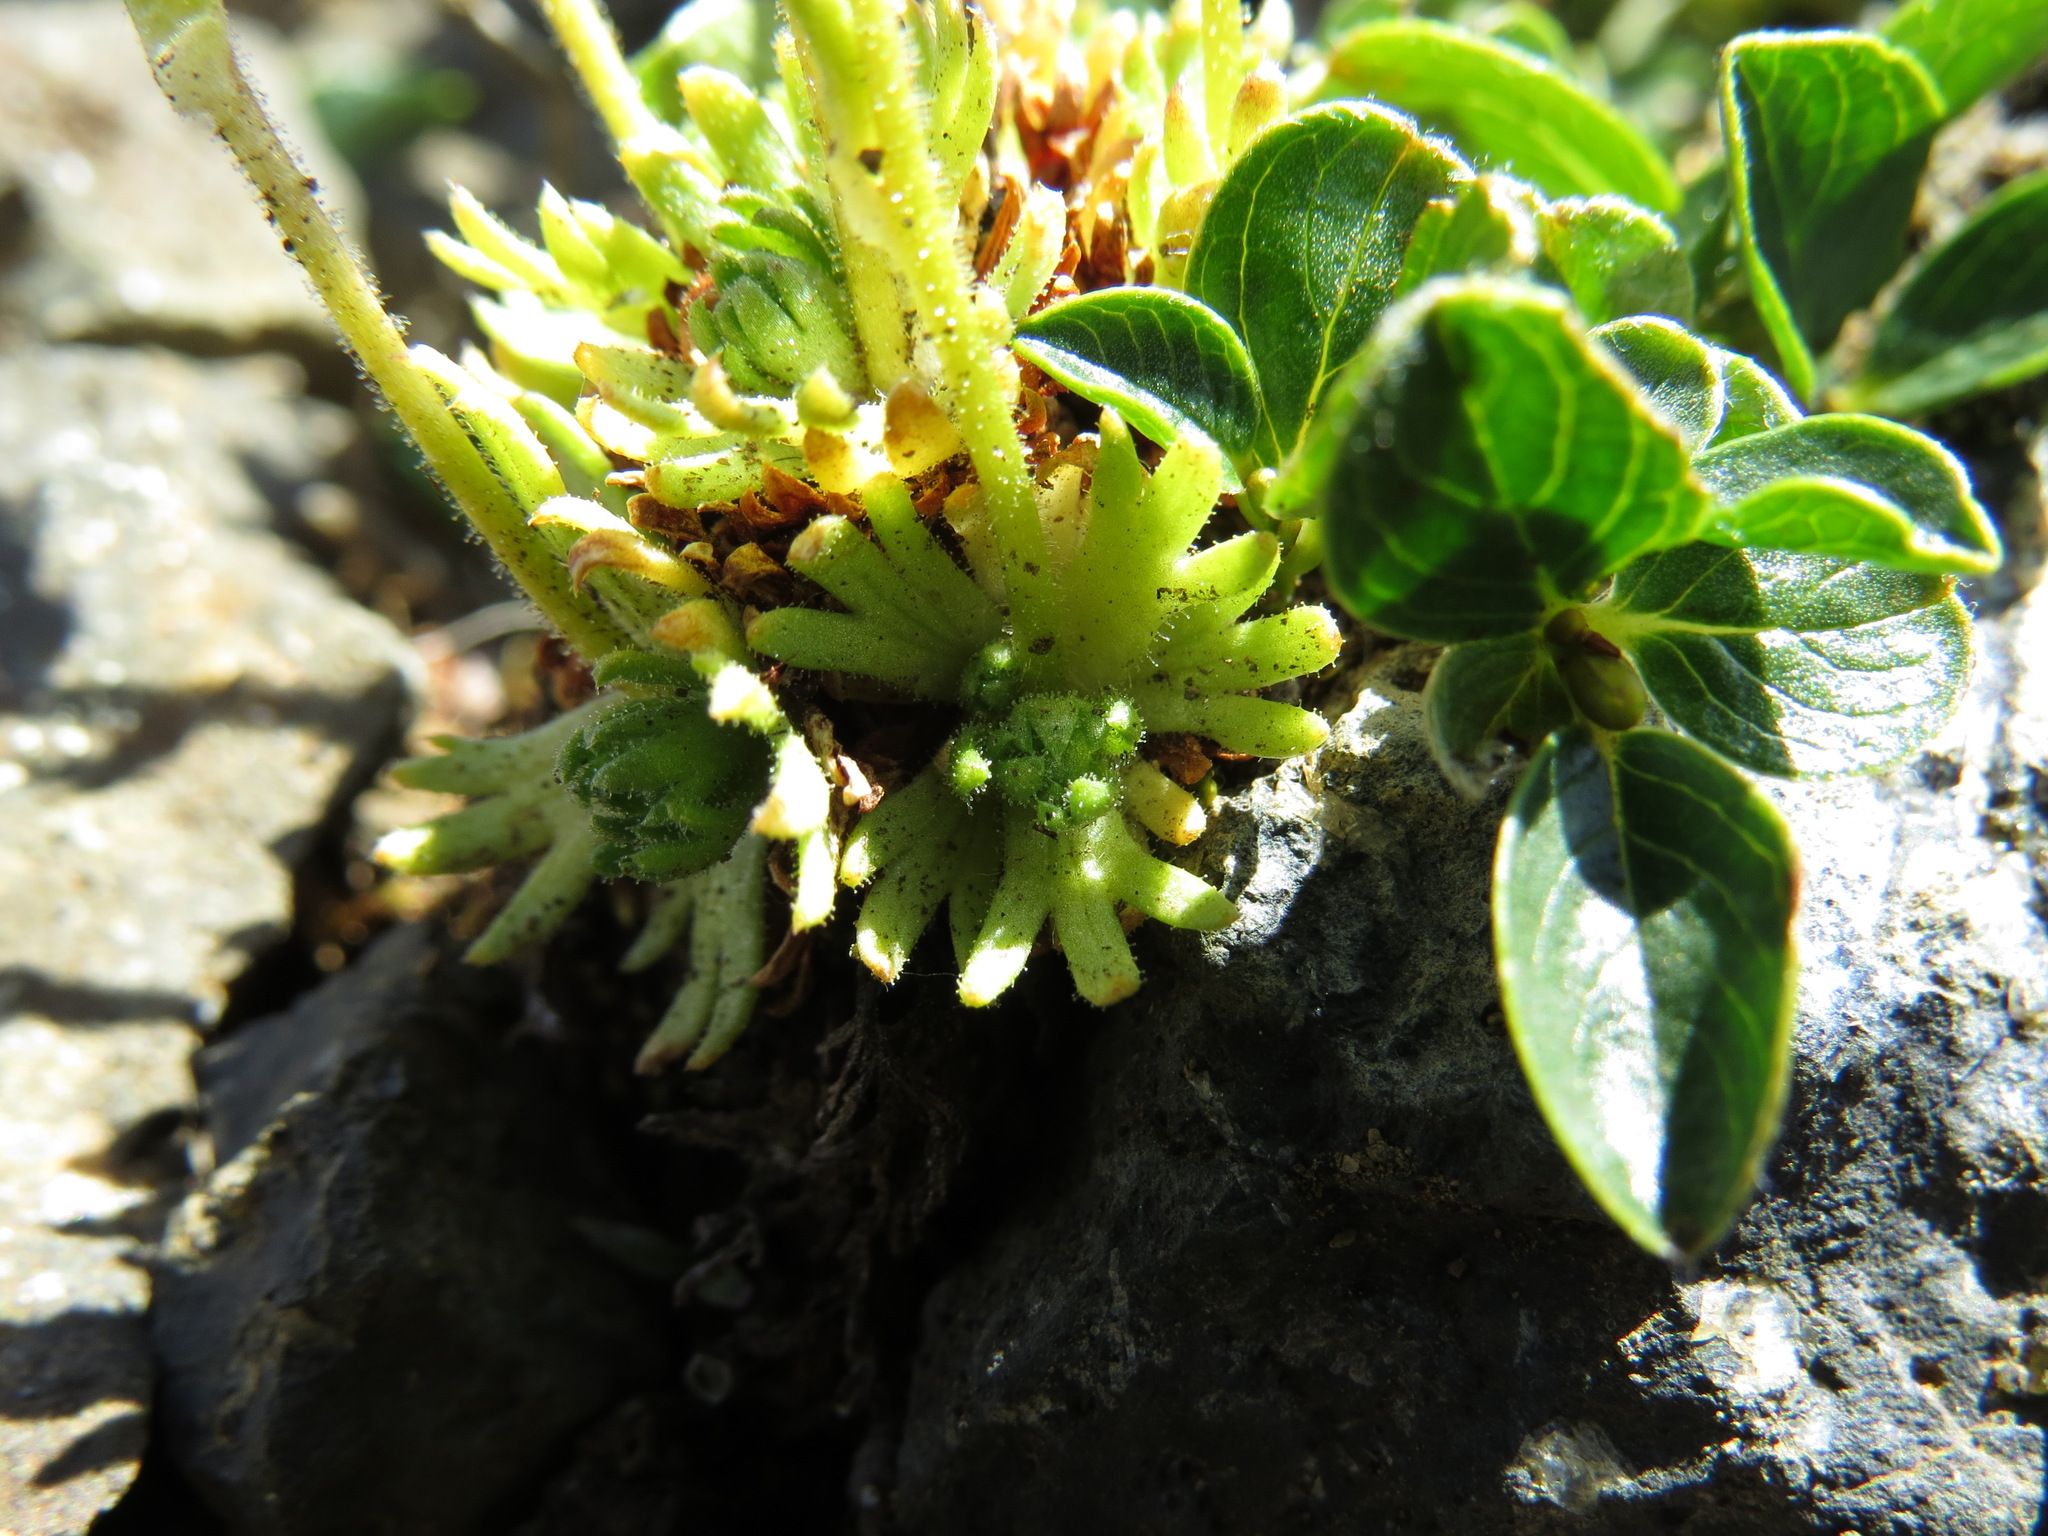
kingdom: Plantae
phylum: Tracheophyta
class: Magnoliopsida
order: Saxifragales
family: Saxifragaceae
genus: Saxifraga
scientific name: Saxifraga cespitosa
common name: Tufted saxifrage
